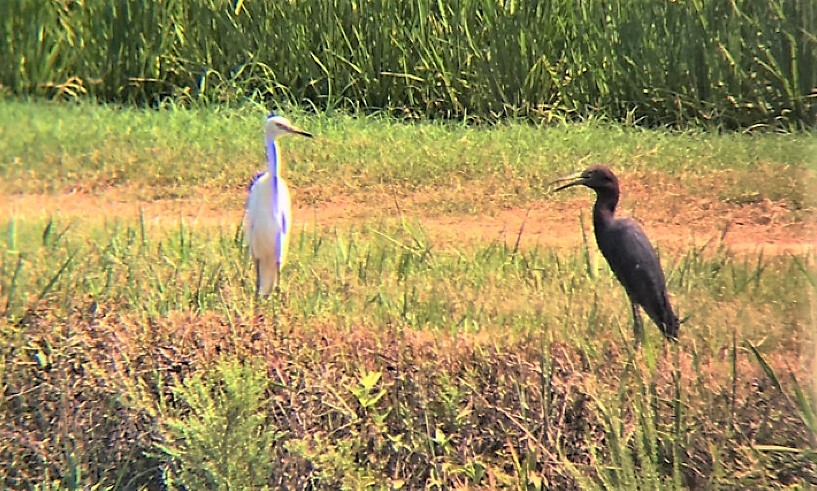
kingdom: Animalia
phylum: Chordata
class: Aves
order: Pelecaniformes
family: Ardeidae
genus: Egretta
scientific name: Egretta caerulea
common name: Little blue heron
